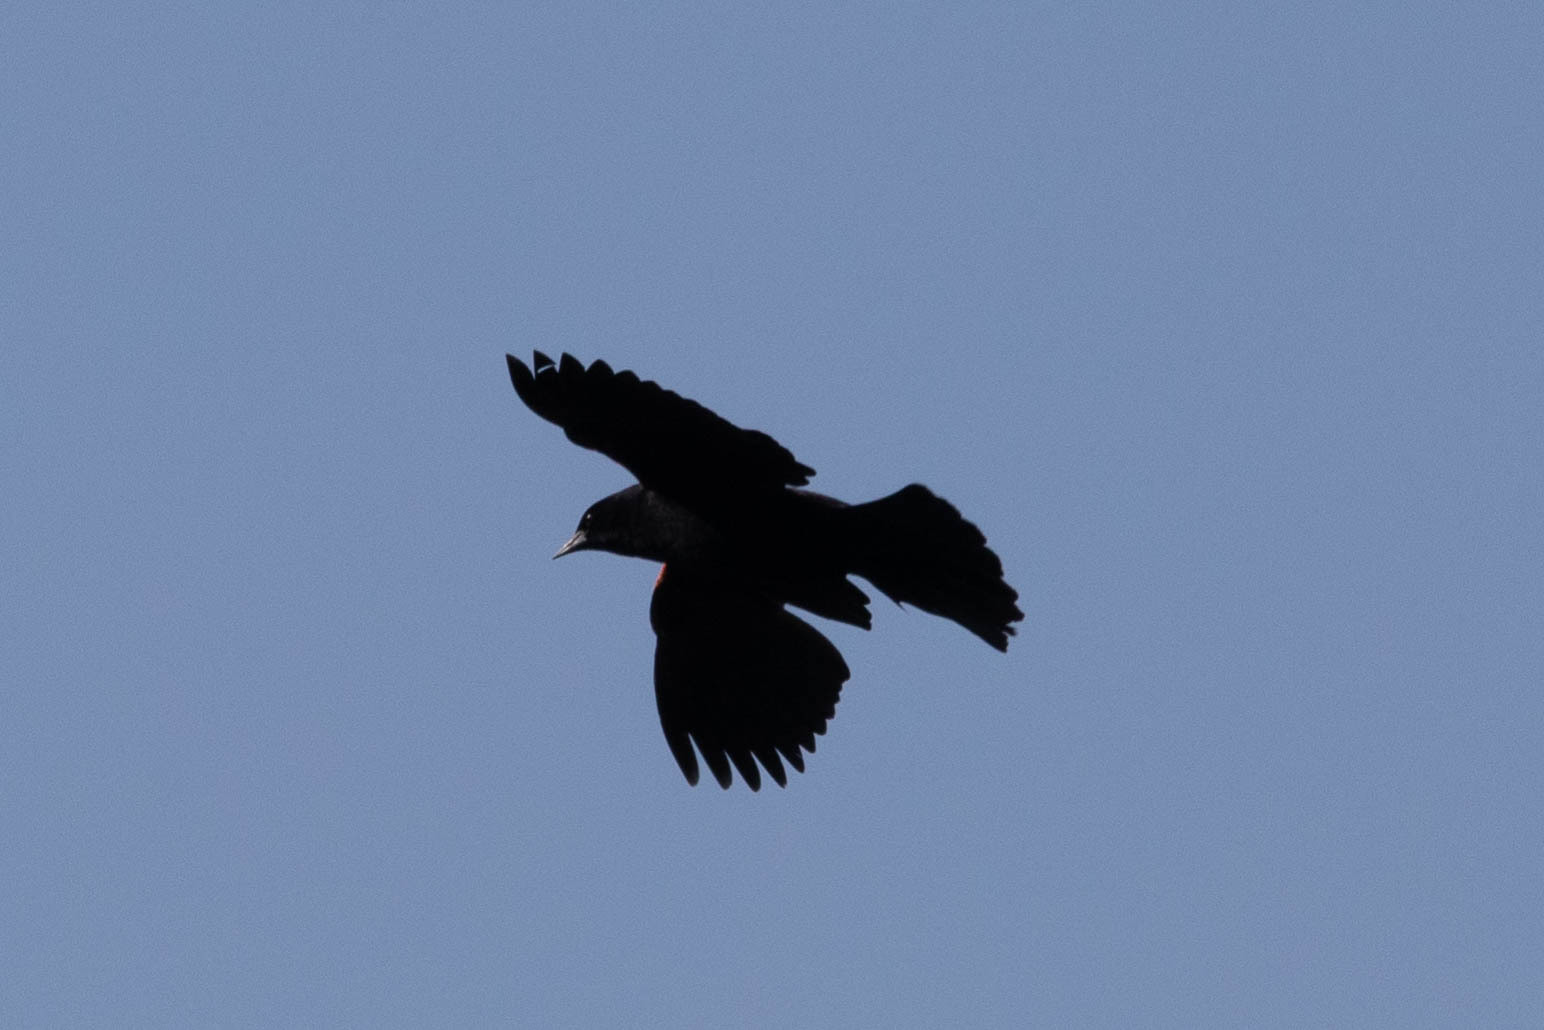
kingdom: Animalia
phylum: Chordata
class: Aves
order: Passeriformes
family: Icteridae
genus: Agelaius
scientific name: Agelaius phoeniceus
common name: Red-winged blackbird
